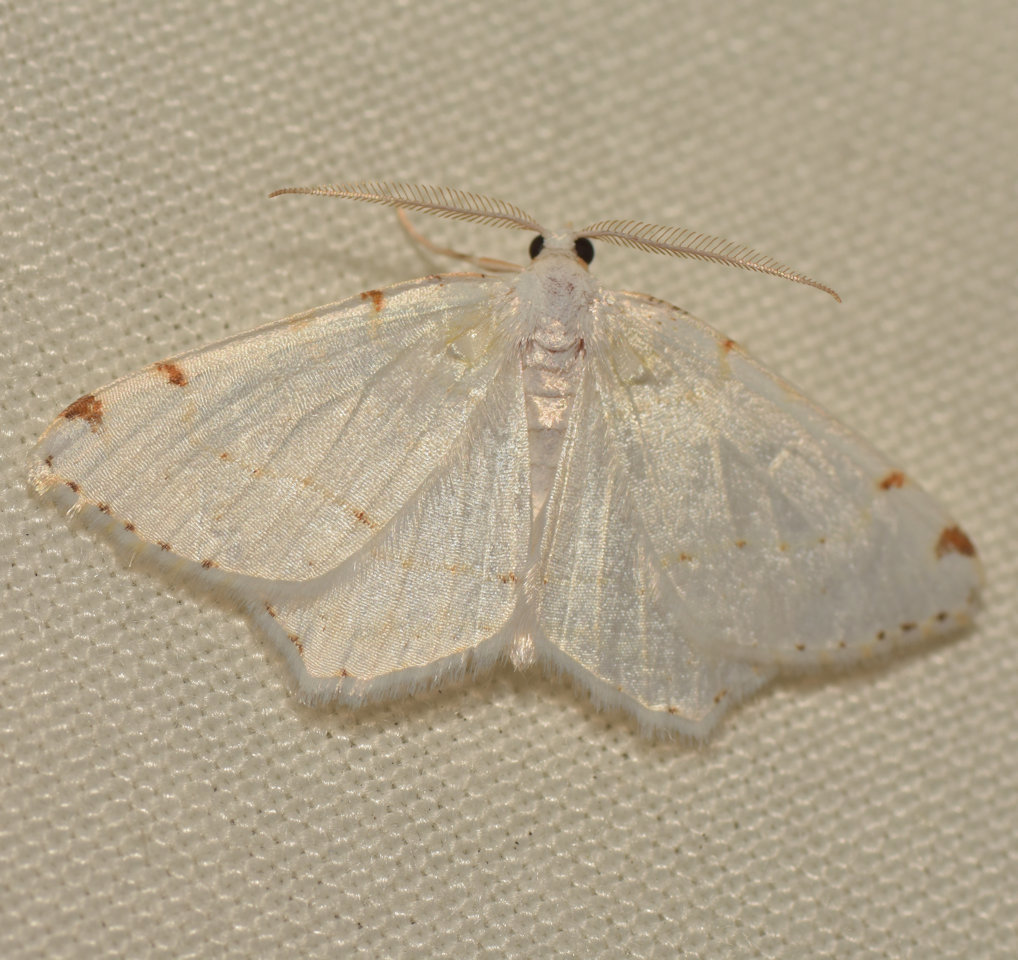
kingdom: Animalia
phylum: Arthropoda
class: Insecta
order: Lepidoptera
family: Geometridae
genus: Macaria
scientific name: Macaria pustularia
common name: Lesser maple spanworm moth
